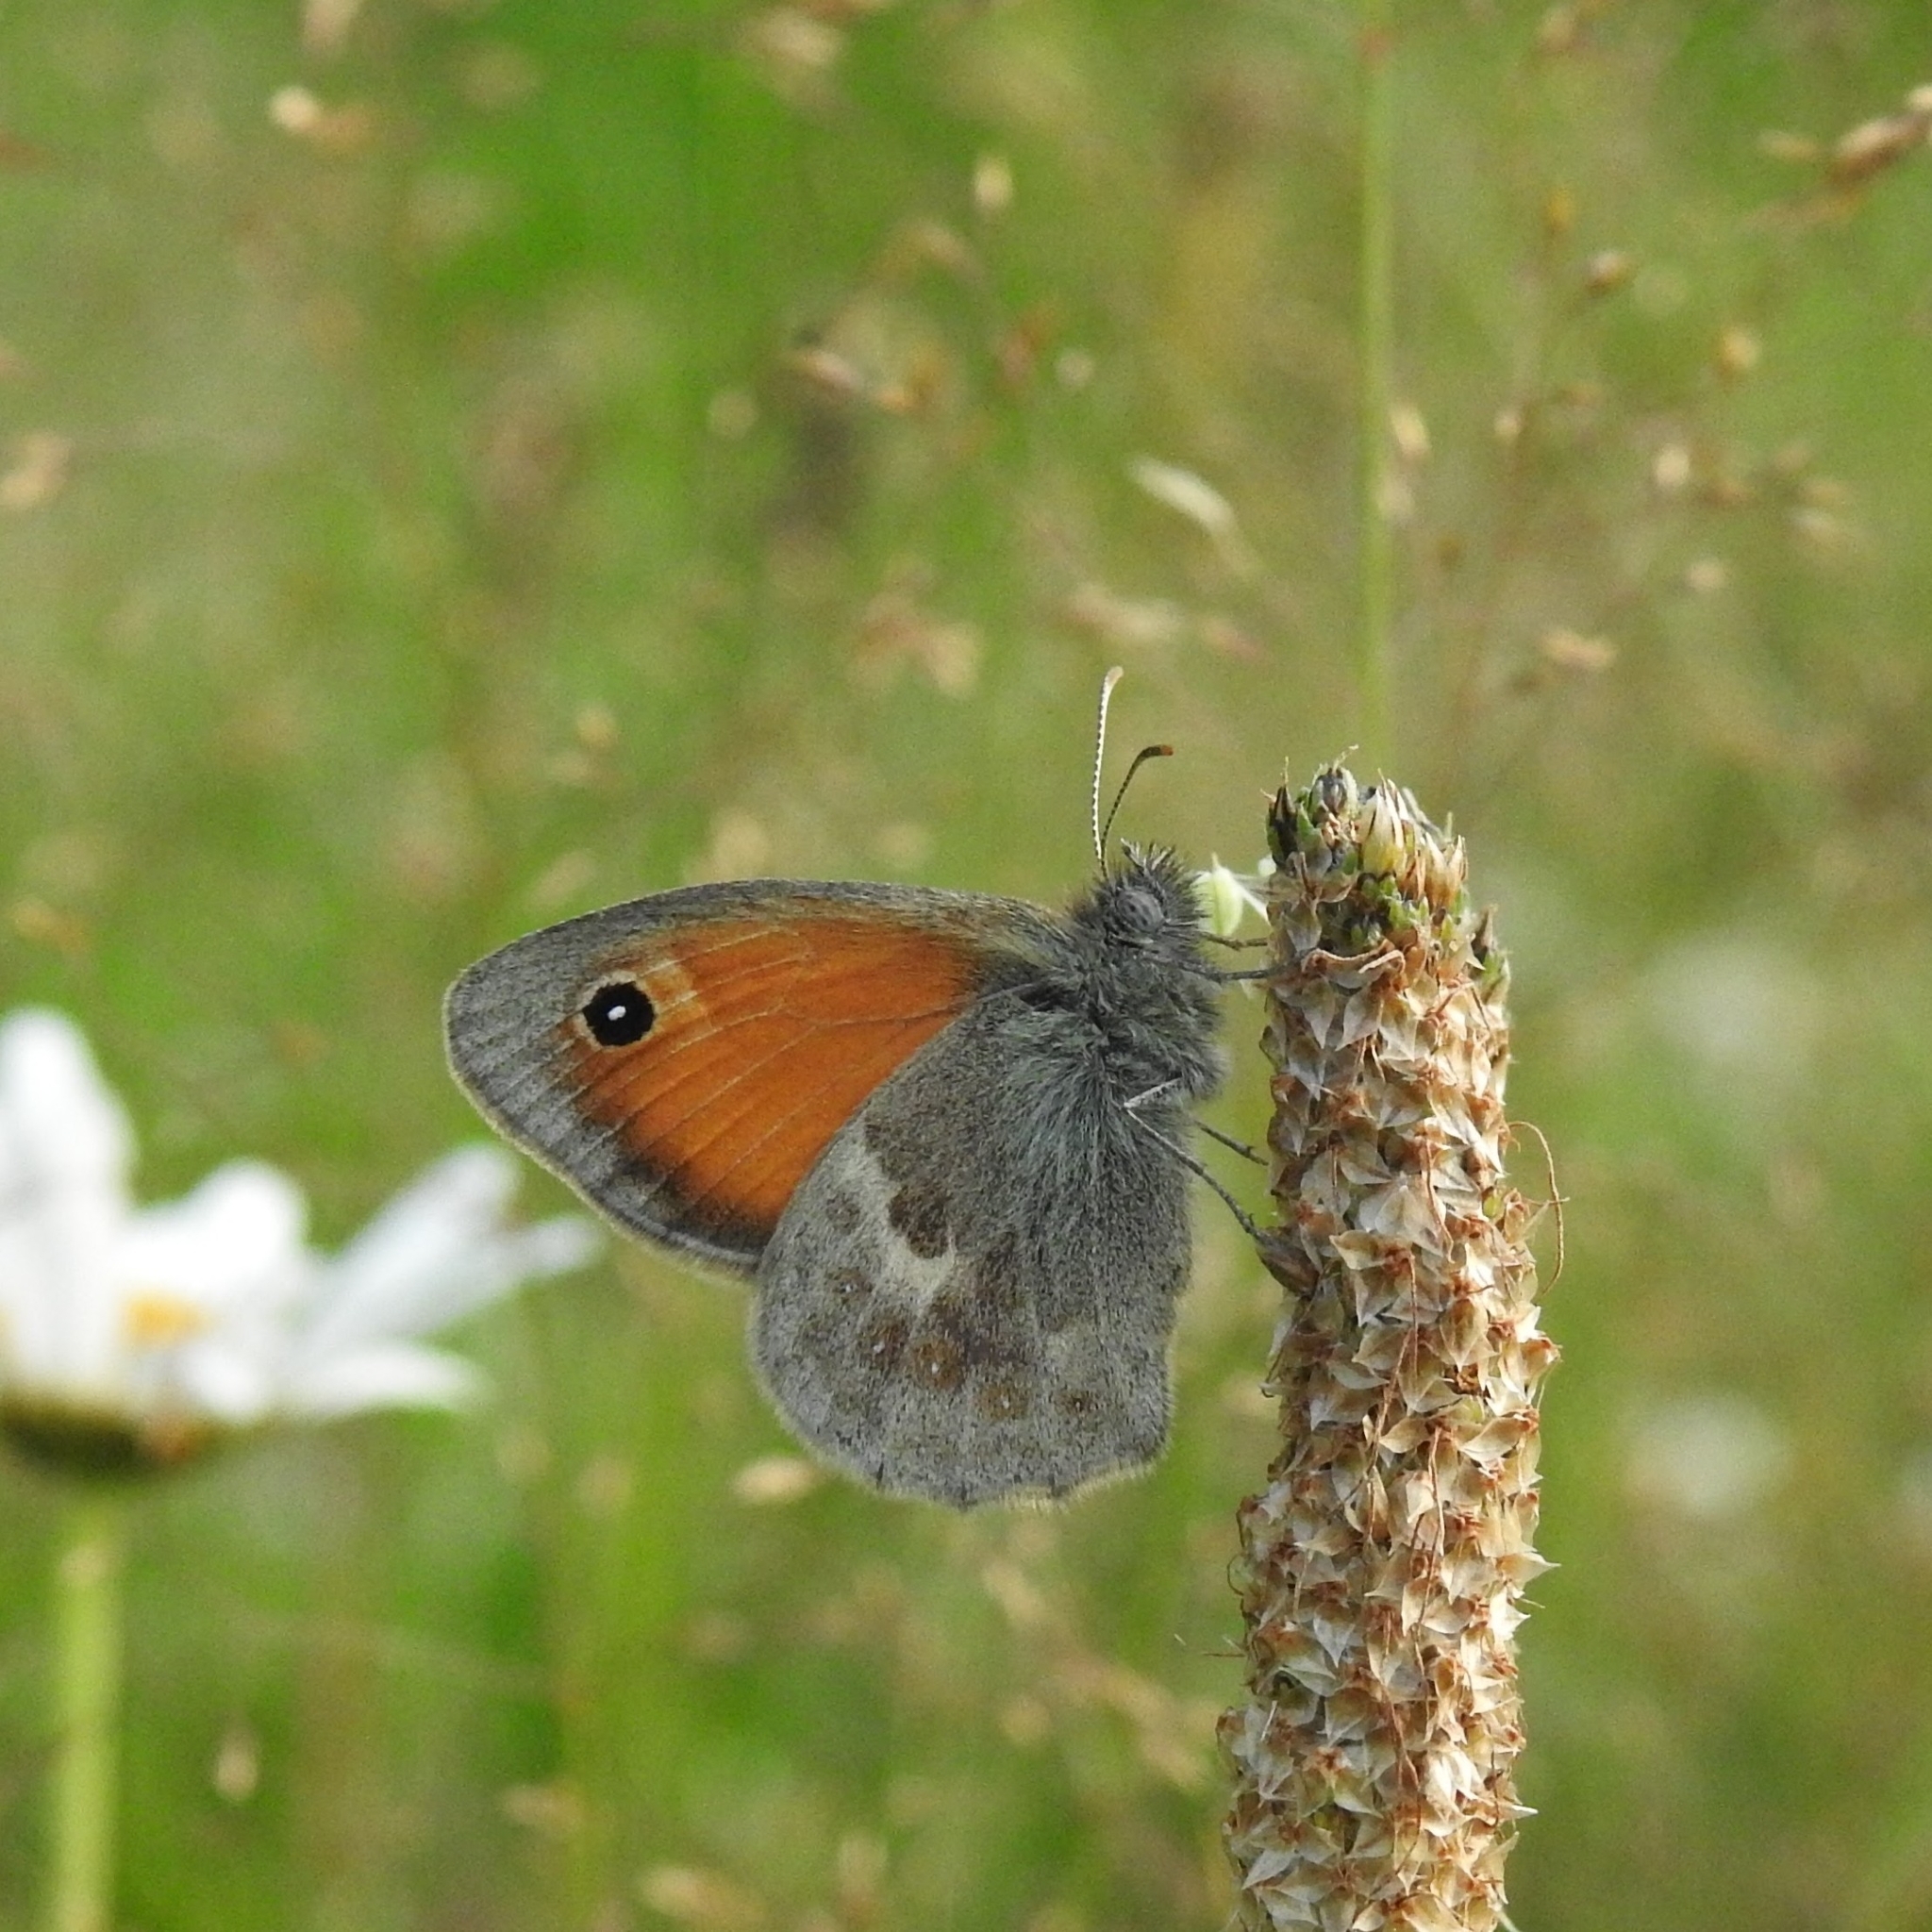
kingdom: Animalia
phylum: Arthropoda
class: Insecta
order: Lepidoptera
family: Nymphalidae
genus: Coenonympha
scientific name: Coenonympha pamphilus
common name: Small heath
